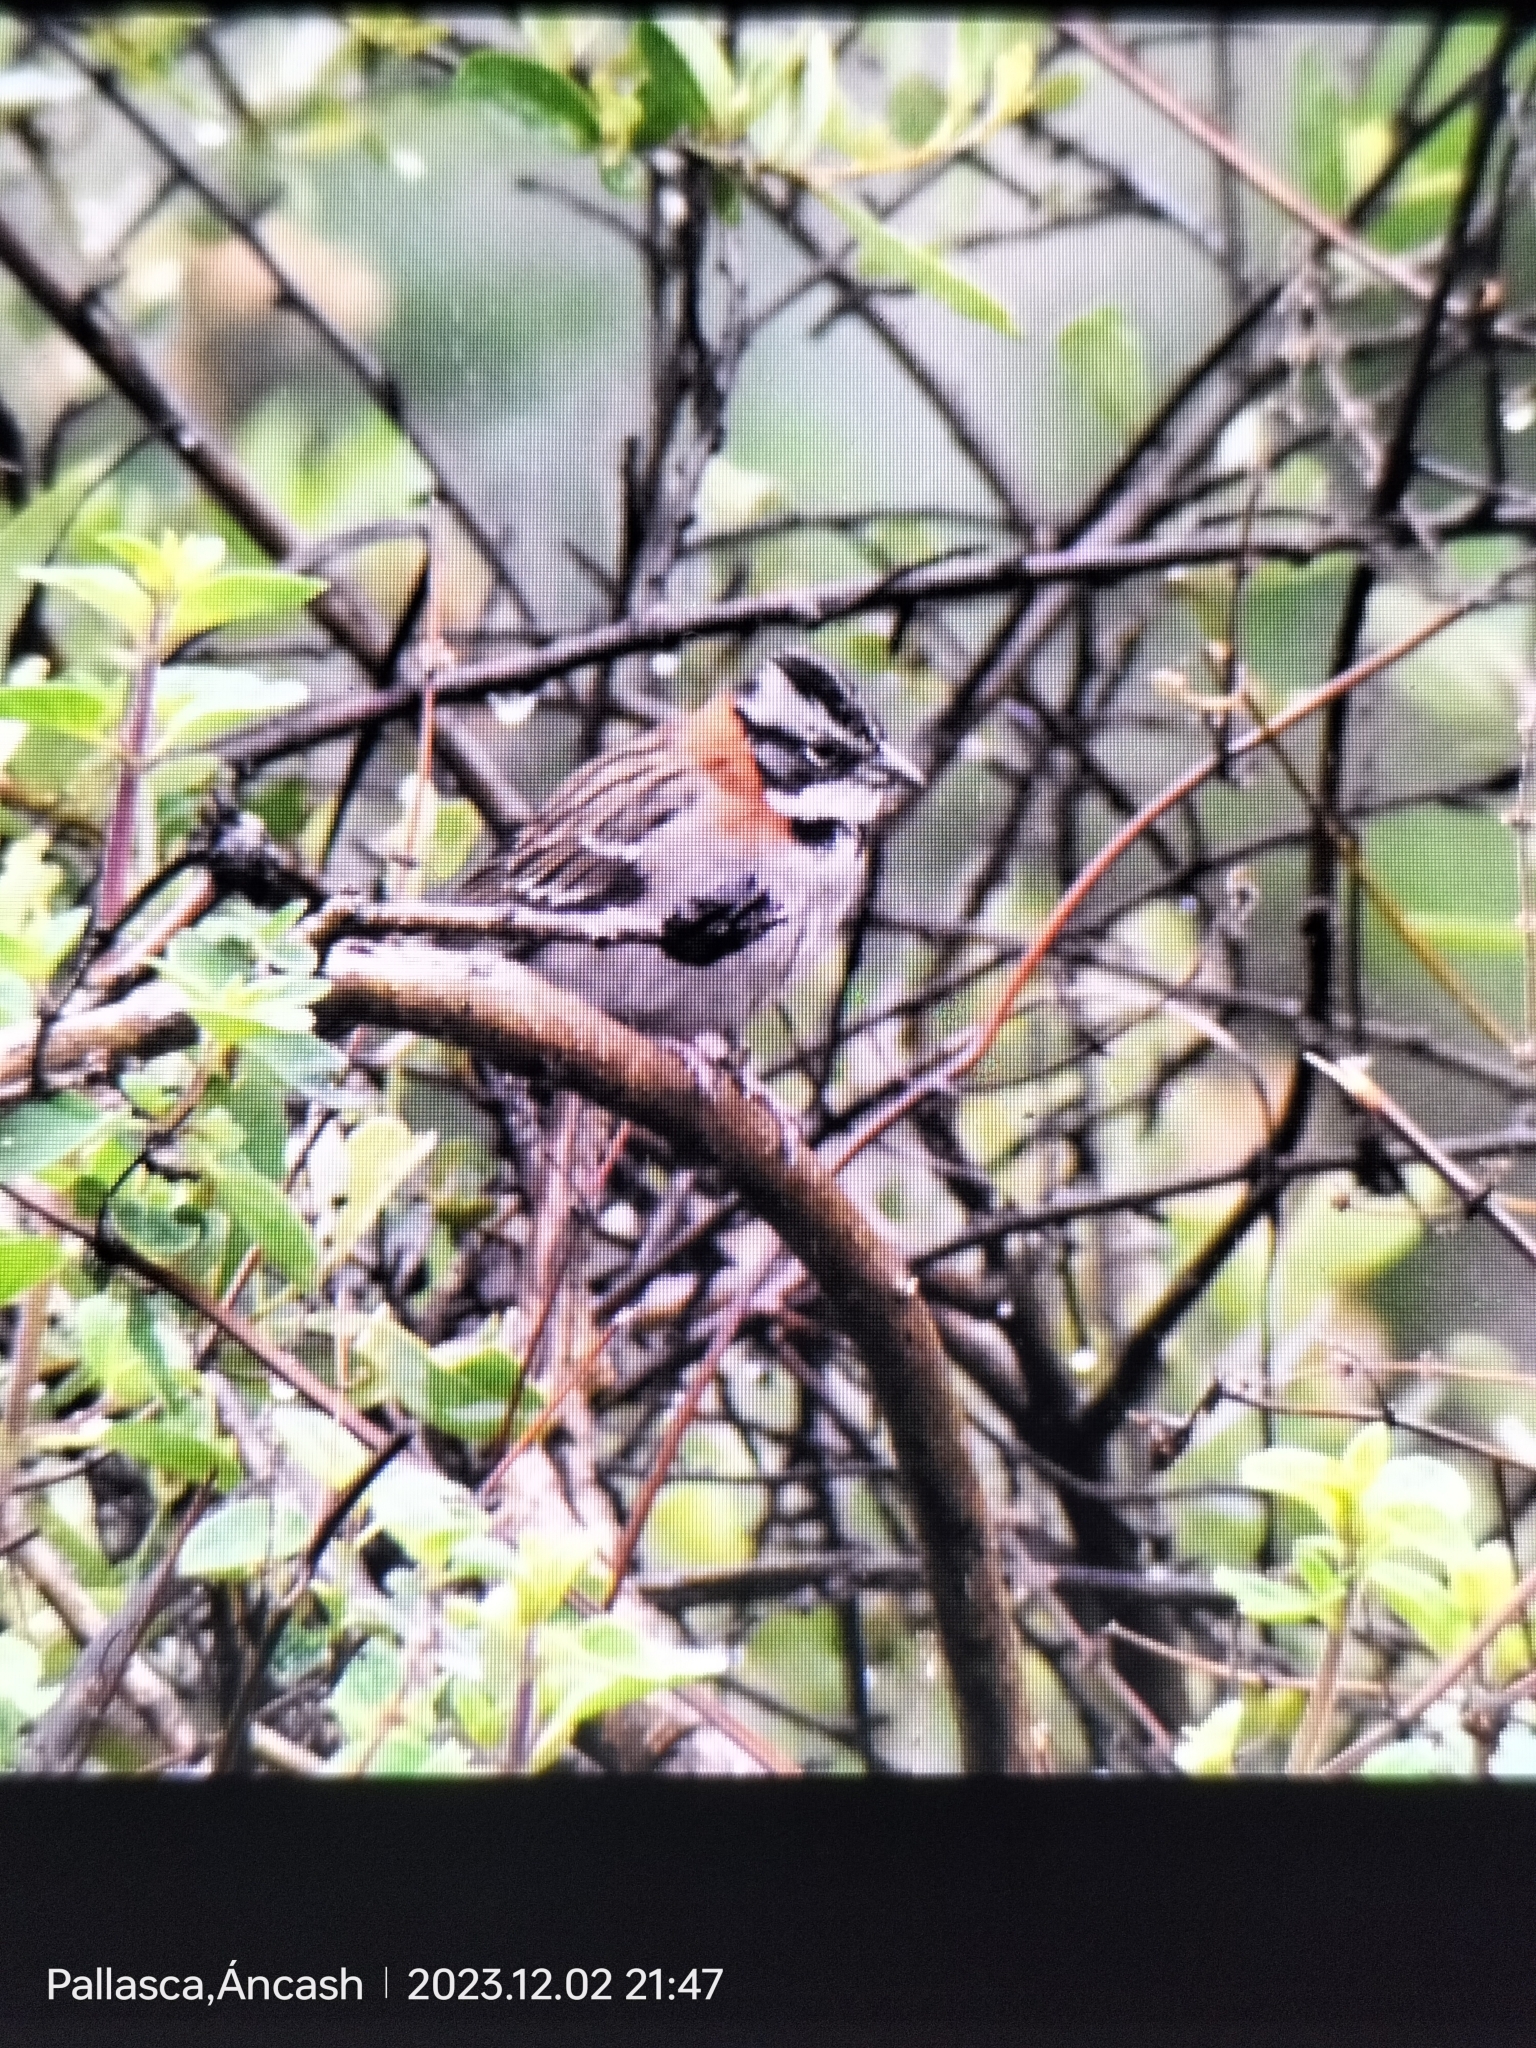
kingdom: Animalia
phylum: Chordata
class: Aves
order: Passeriformes
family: Passerellidae
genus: Zonotrichia
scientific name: Zonotrichia capensis
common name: Rufous-collared sparrow
